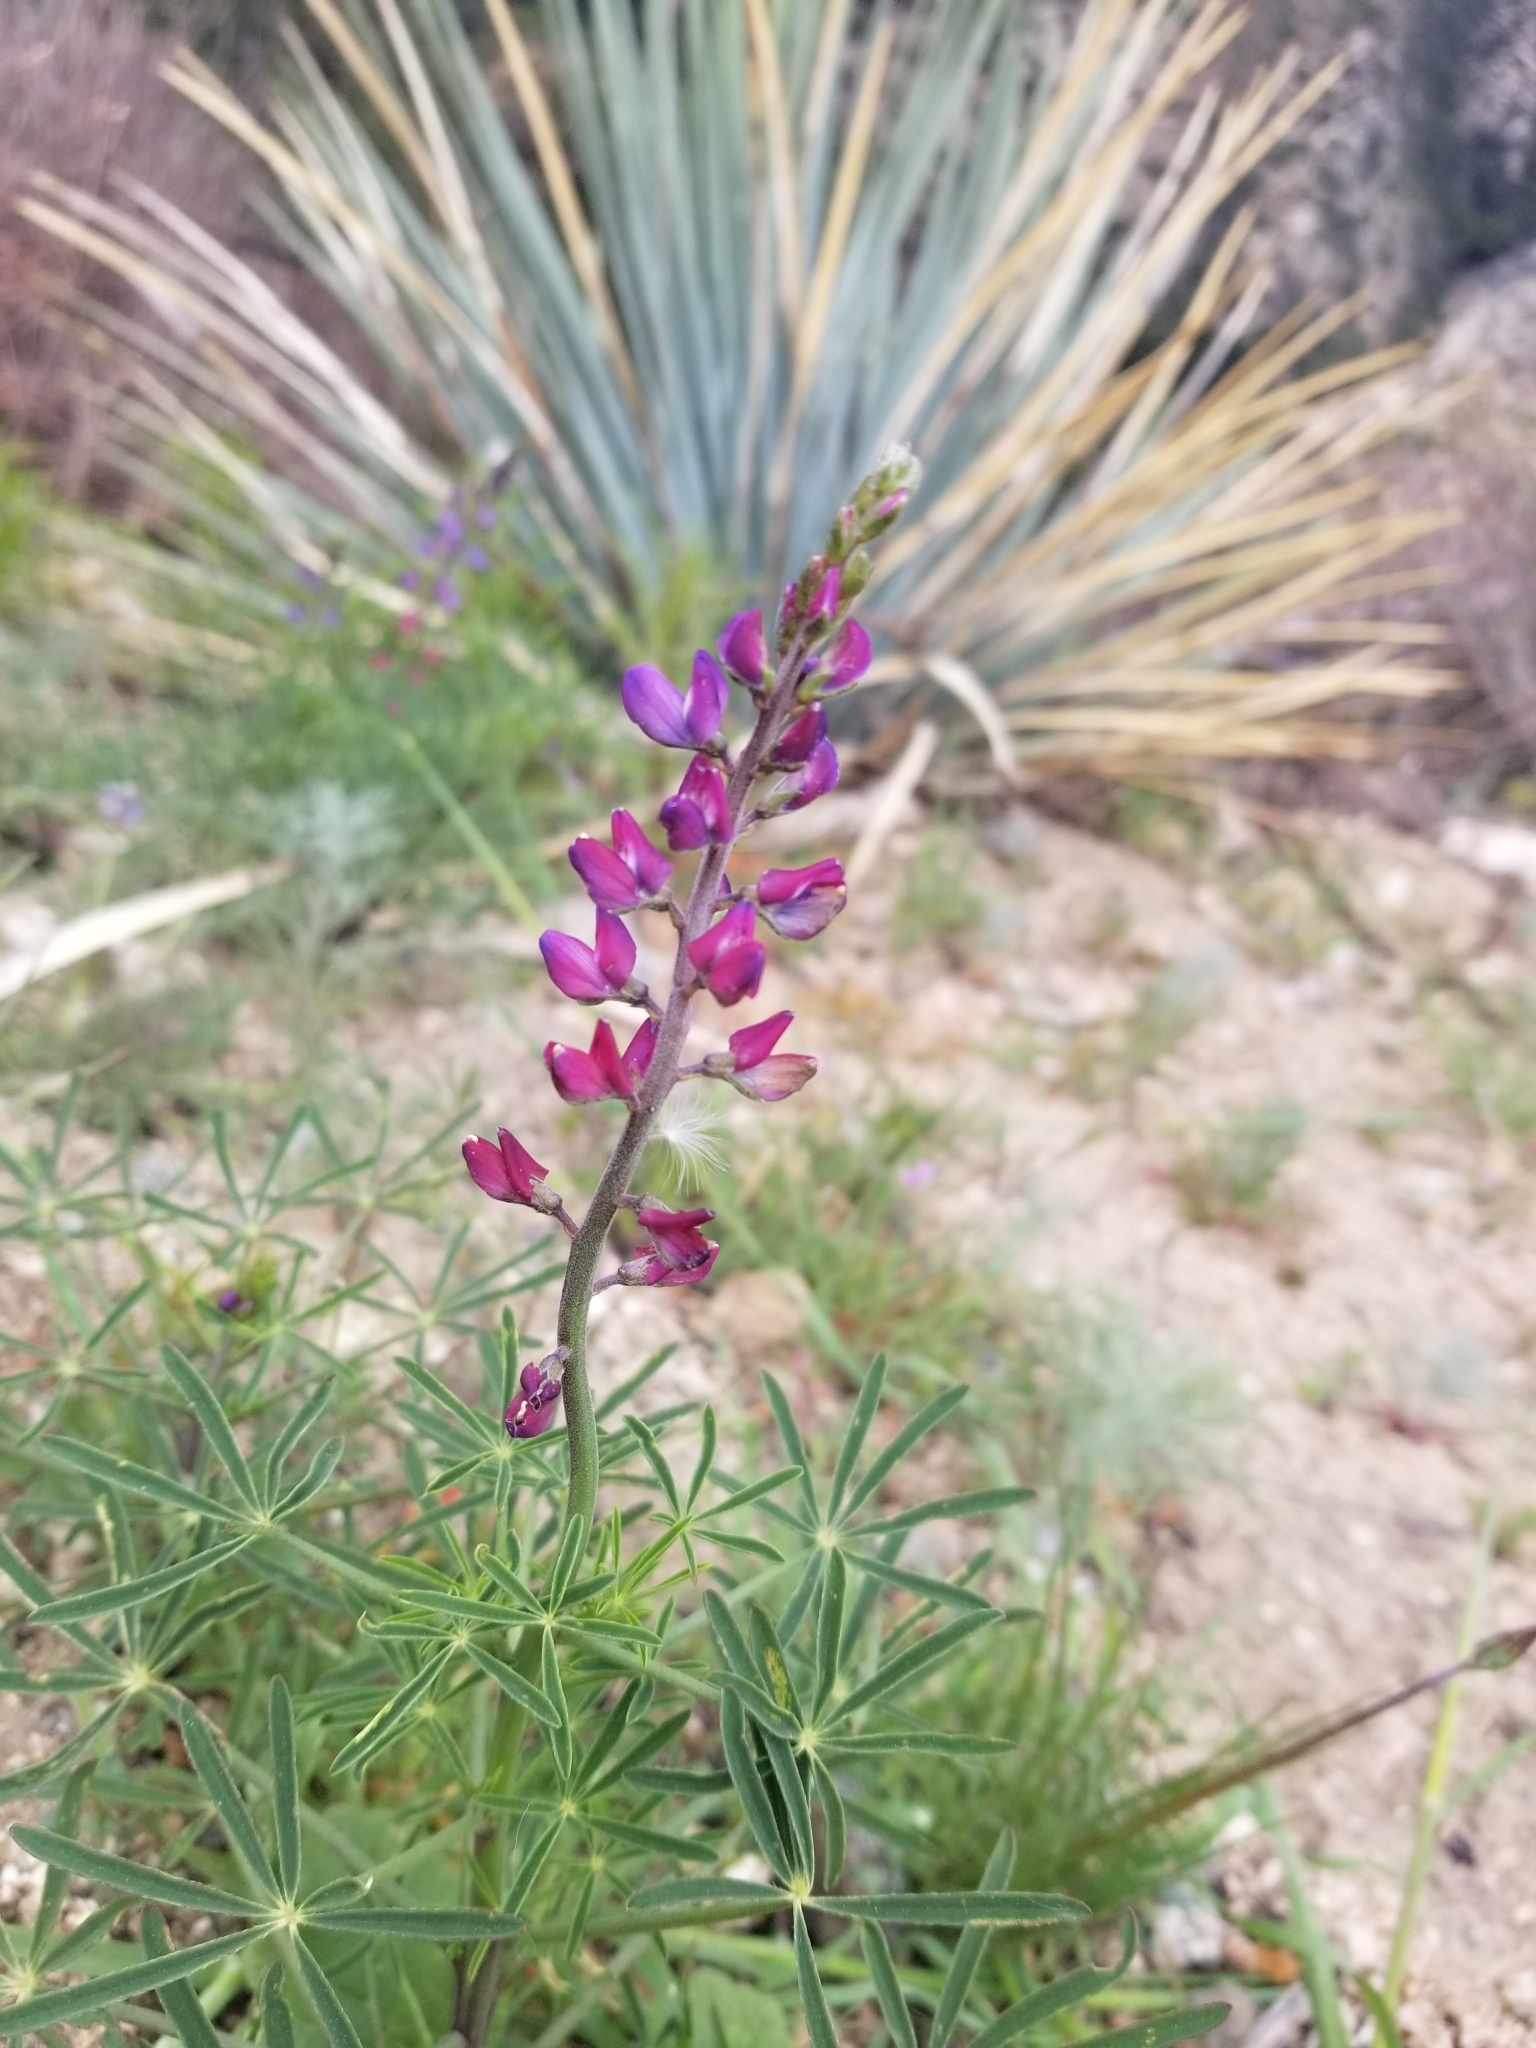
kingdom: Plantae
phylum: Tracheophyta
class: Magnoliopsida
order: Fabales
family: Fabaceae
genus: Lupinus
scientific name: Lupinus truncatus
